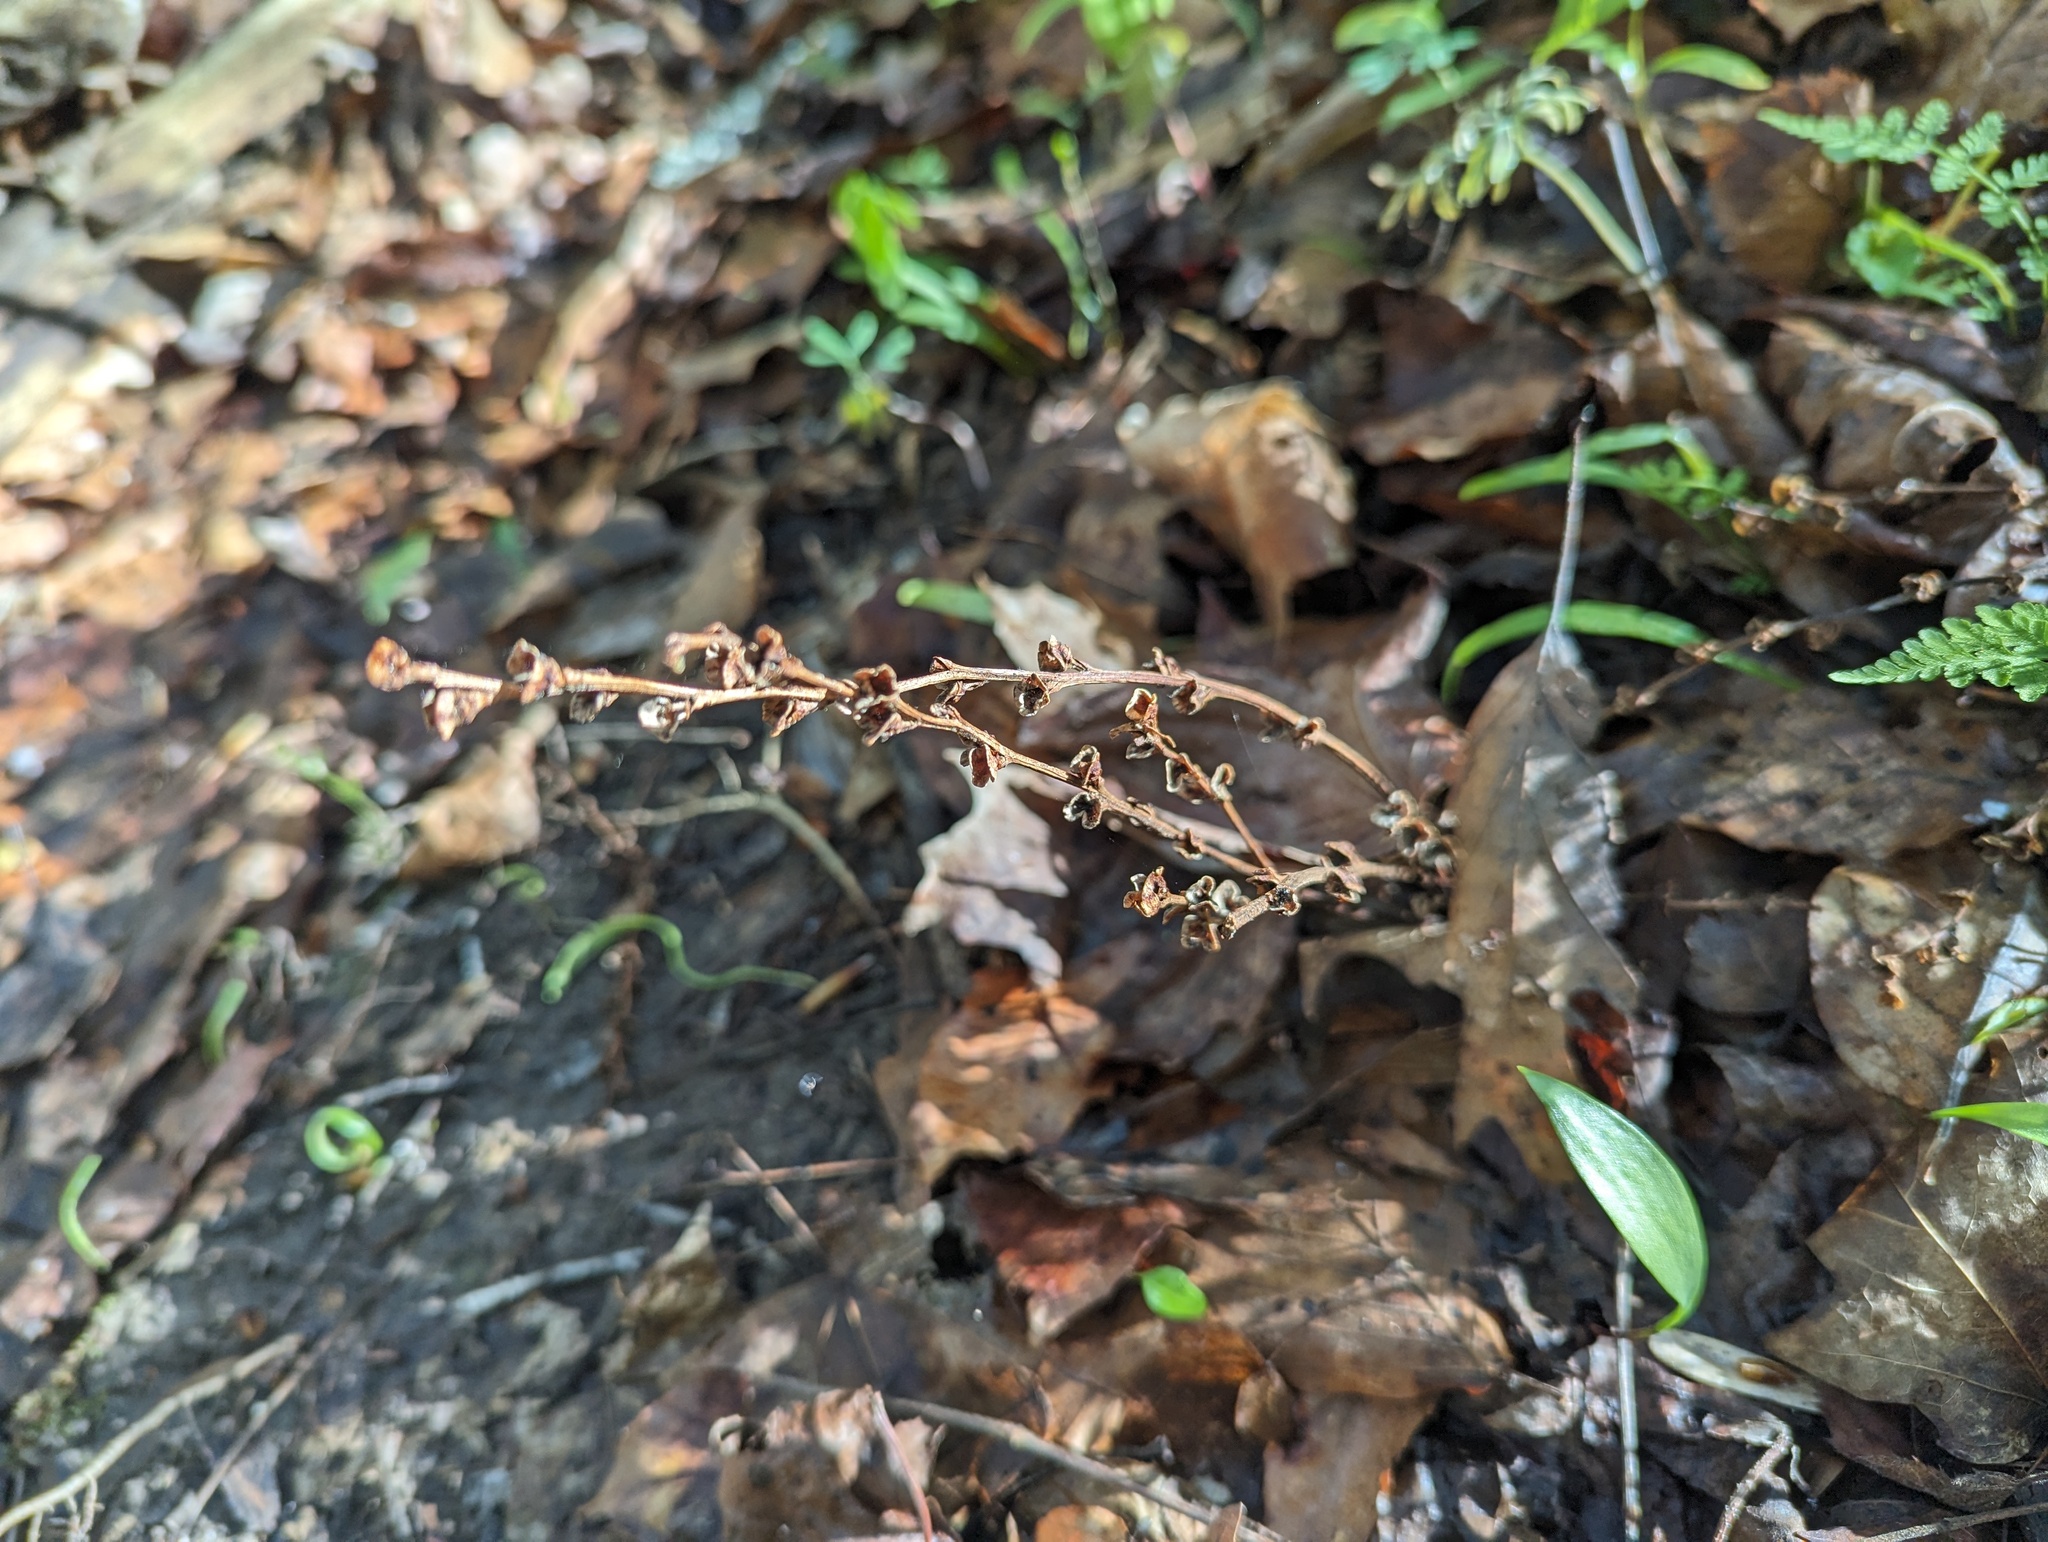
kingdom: Plantae
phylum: Tracheophyta
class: Magnoliopsida
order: Lamiales
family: Orobanchaceae
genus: Epifagus
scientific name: Epifagus virginiana
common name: Beechdrops
